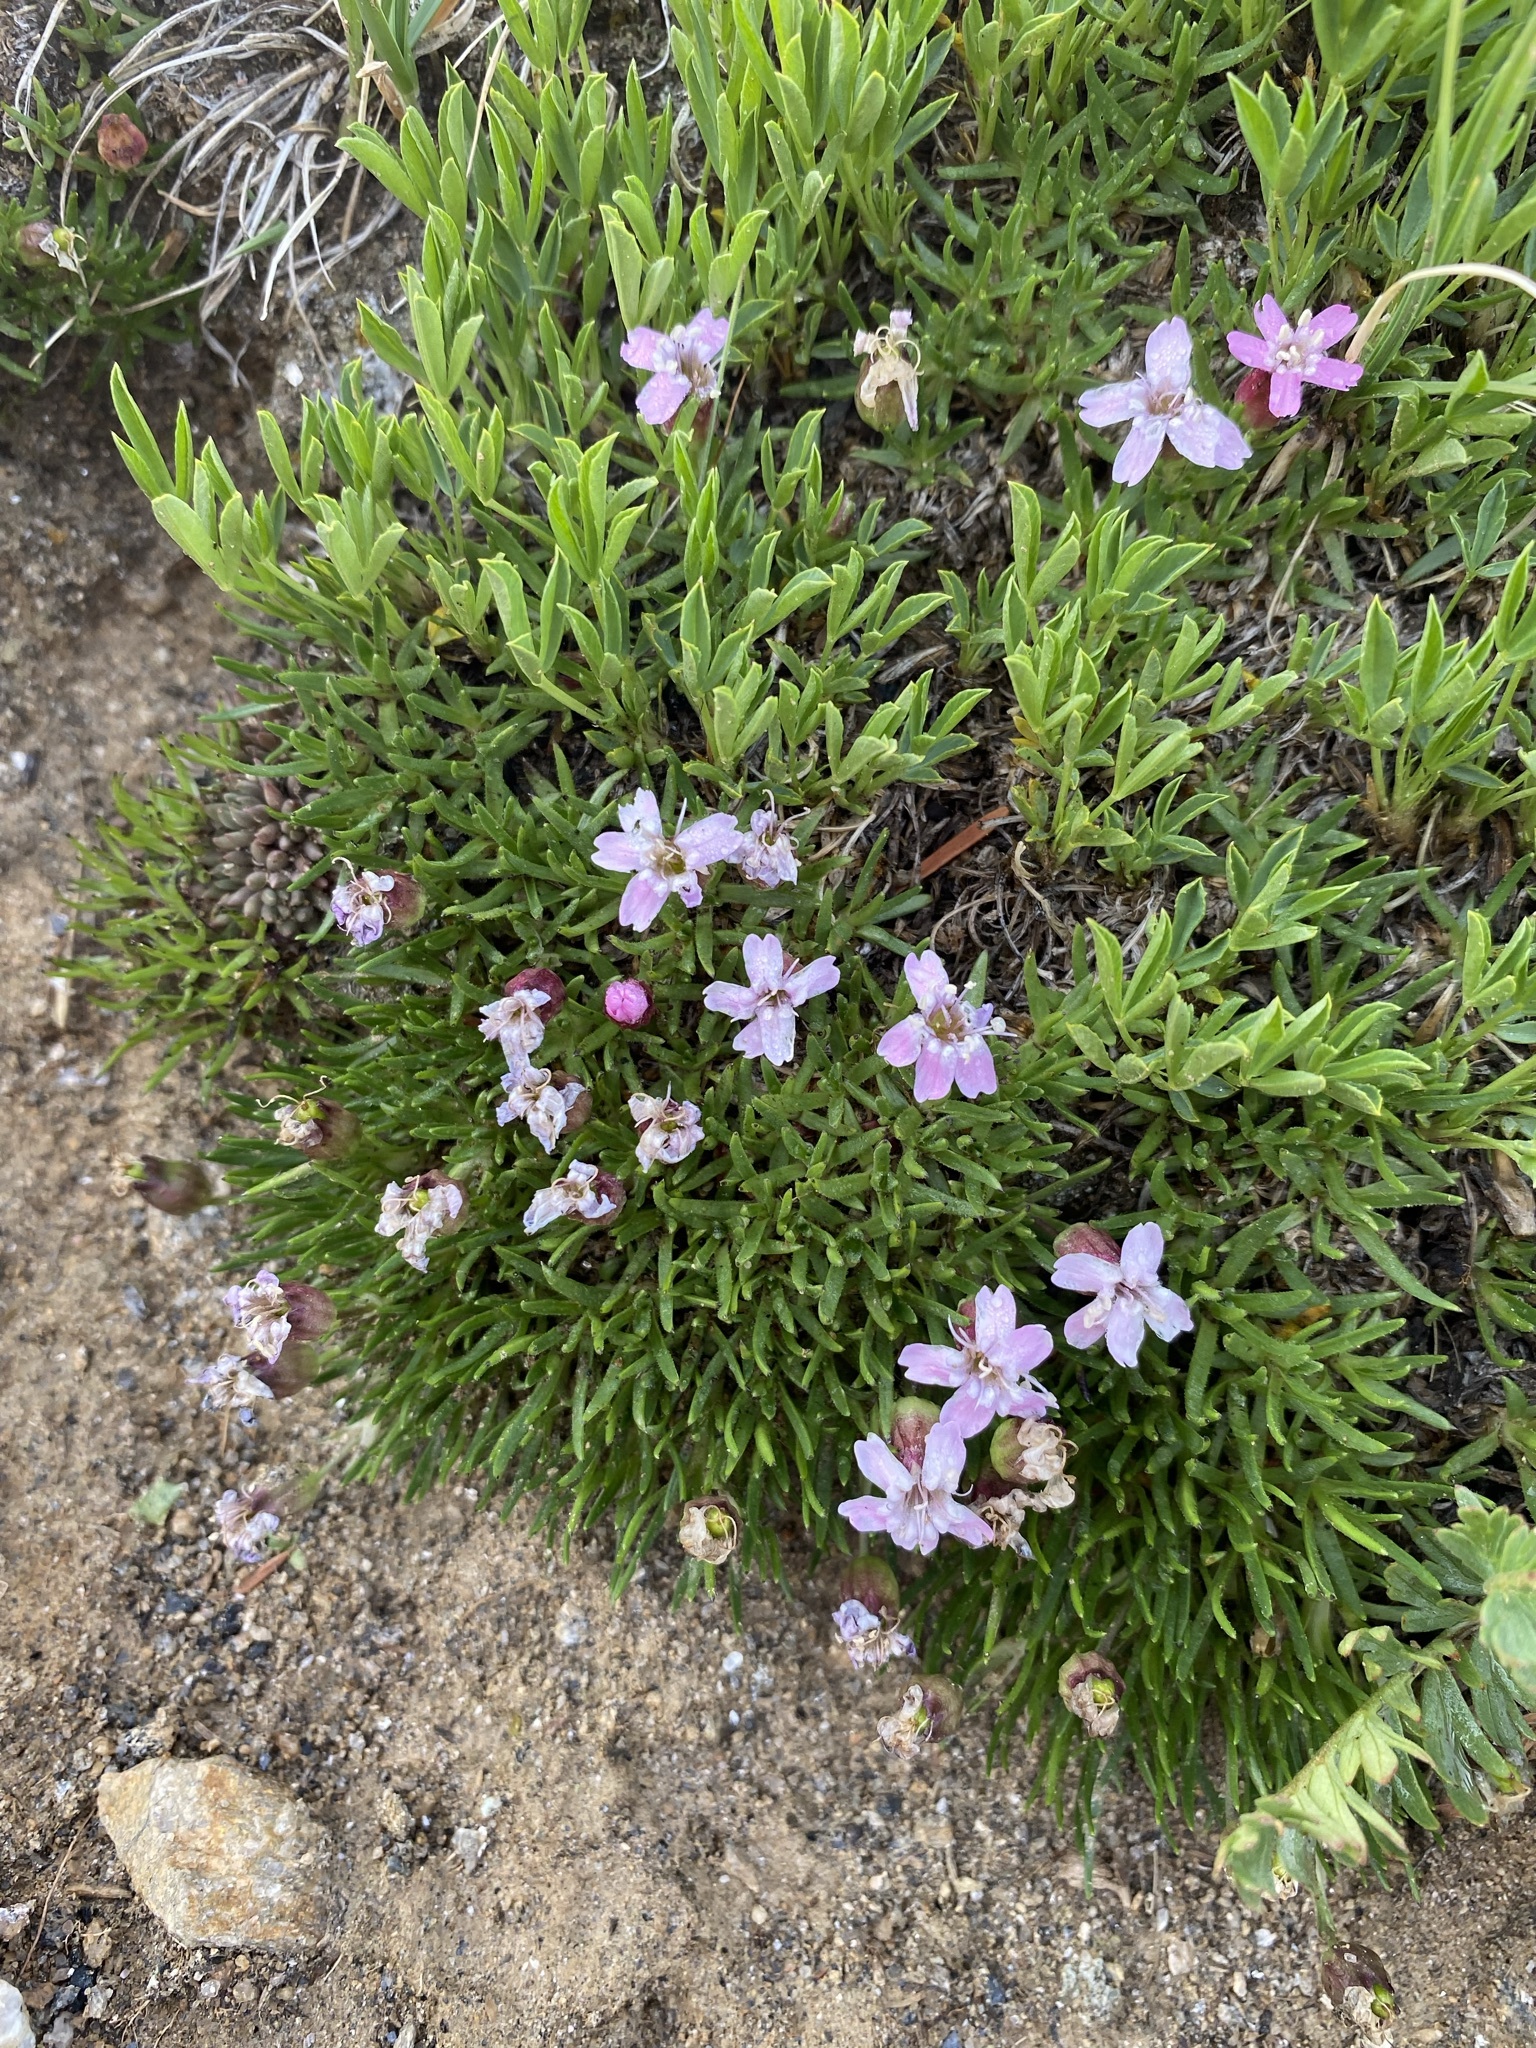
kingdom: Plantae
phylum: Tracheophyta
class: Magnoliopsida
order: Caryophyllales
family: Caryophyllaceae
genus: Silene
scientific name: Silene acaulis
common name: Moss campion
